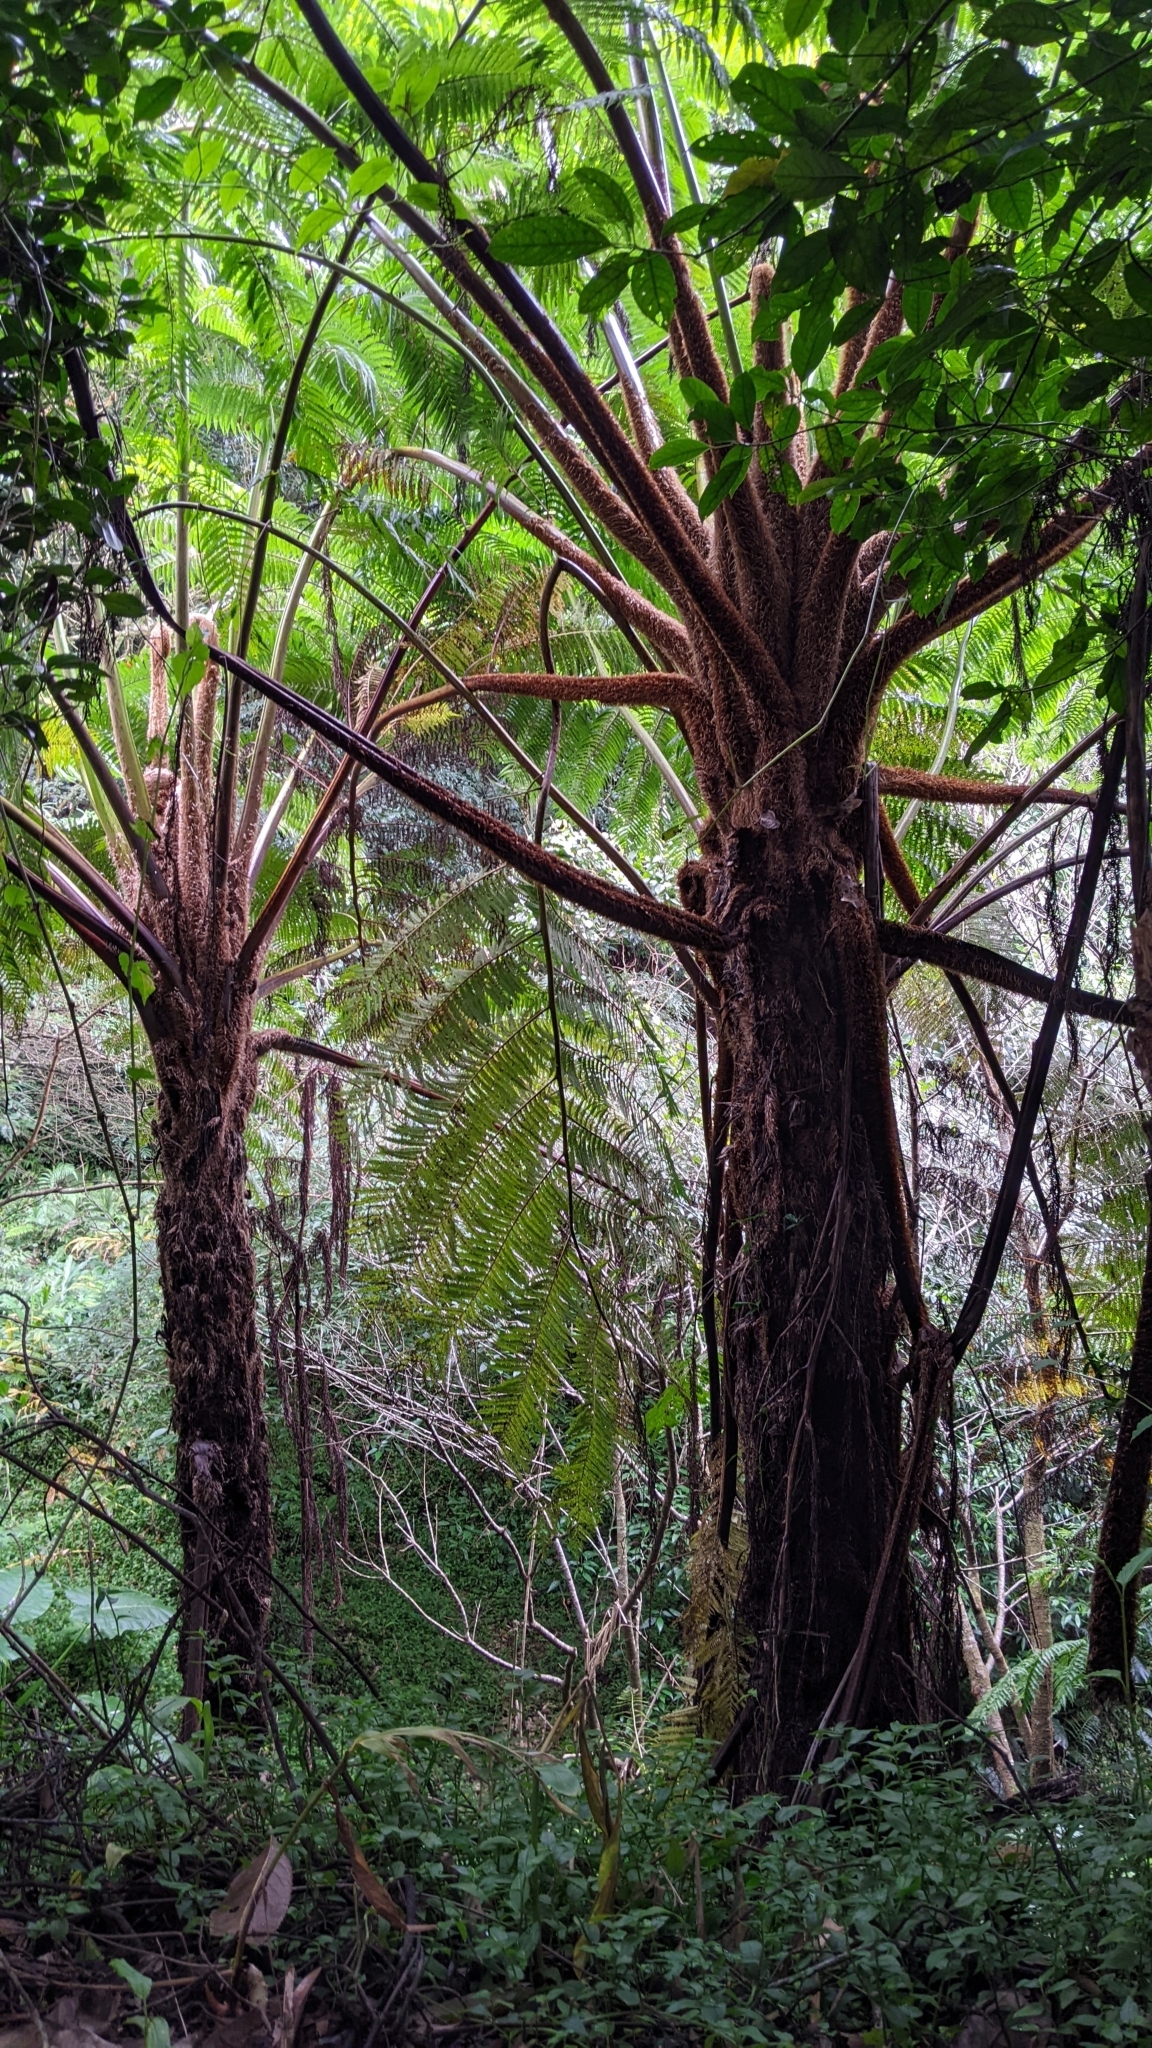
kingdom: Plantae
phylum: Tracheophyta
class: Polypodiopsida
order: Cyatheales
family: Cyatheaceae
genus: Alsophila
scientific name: Alsophila lepifera
